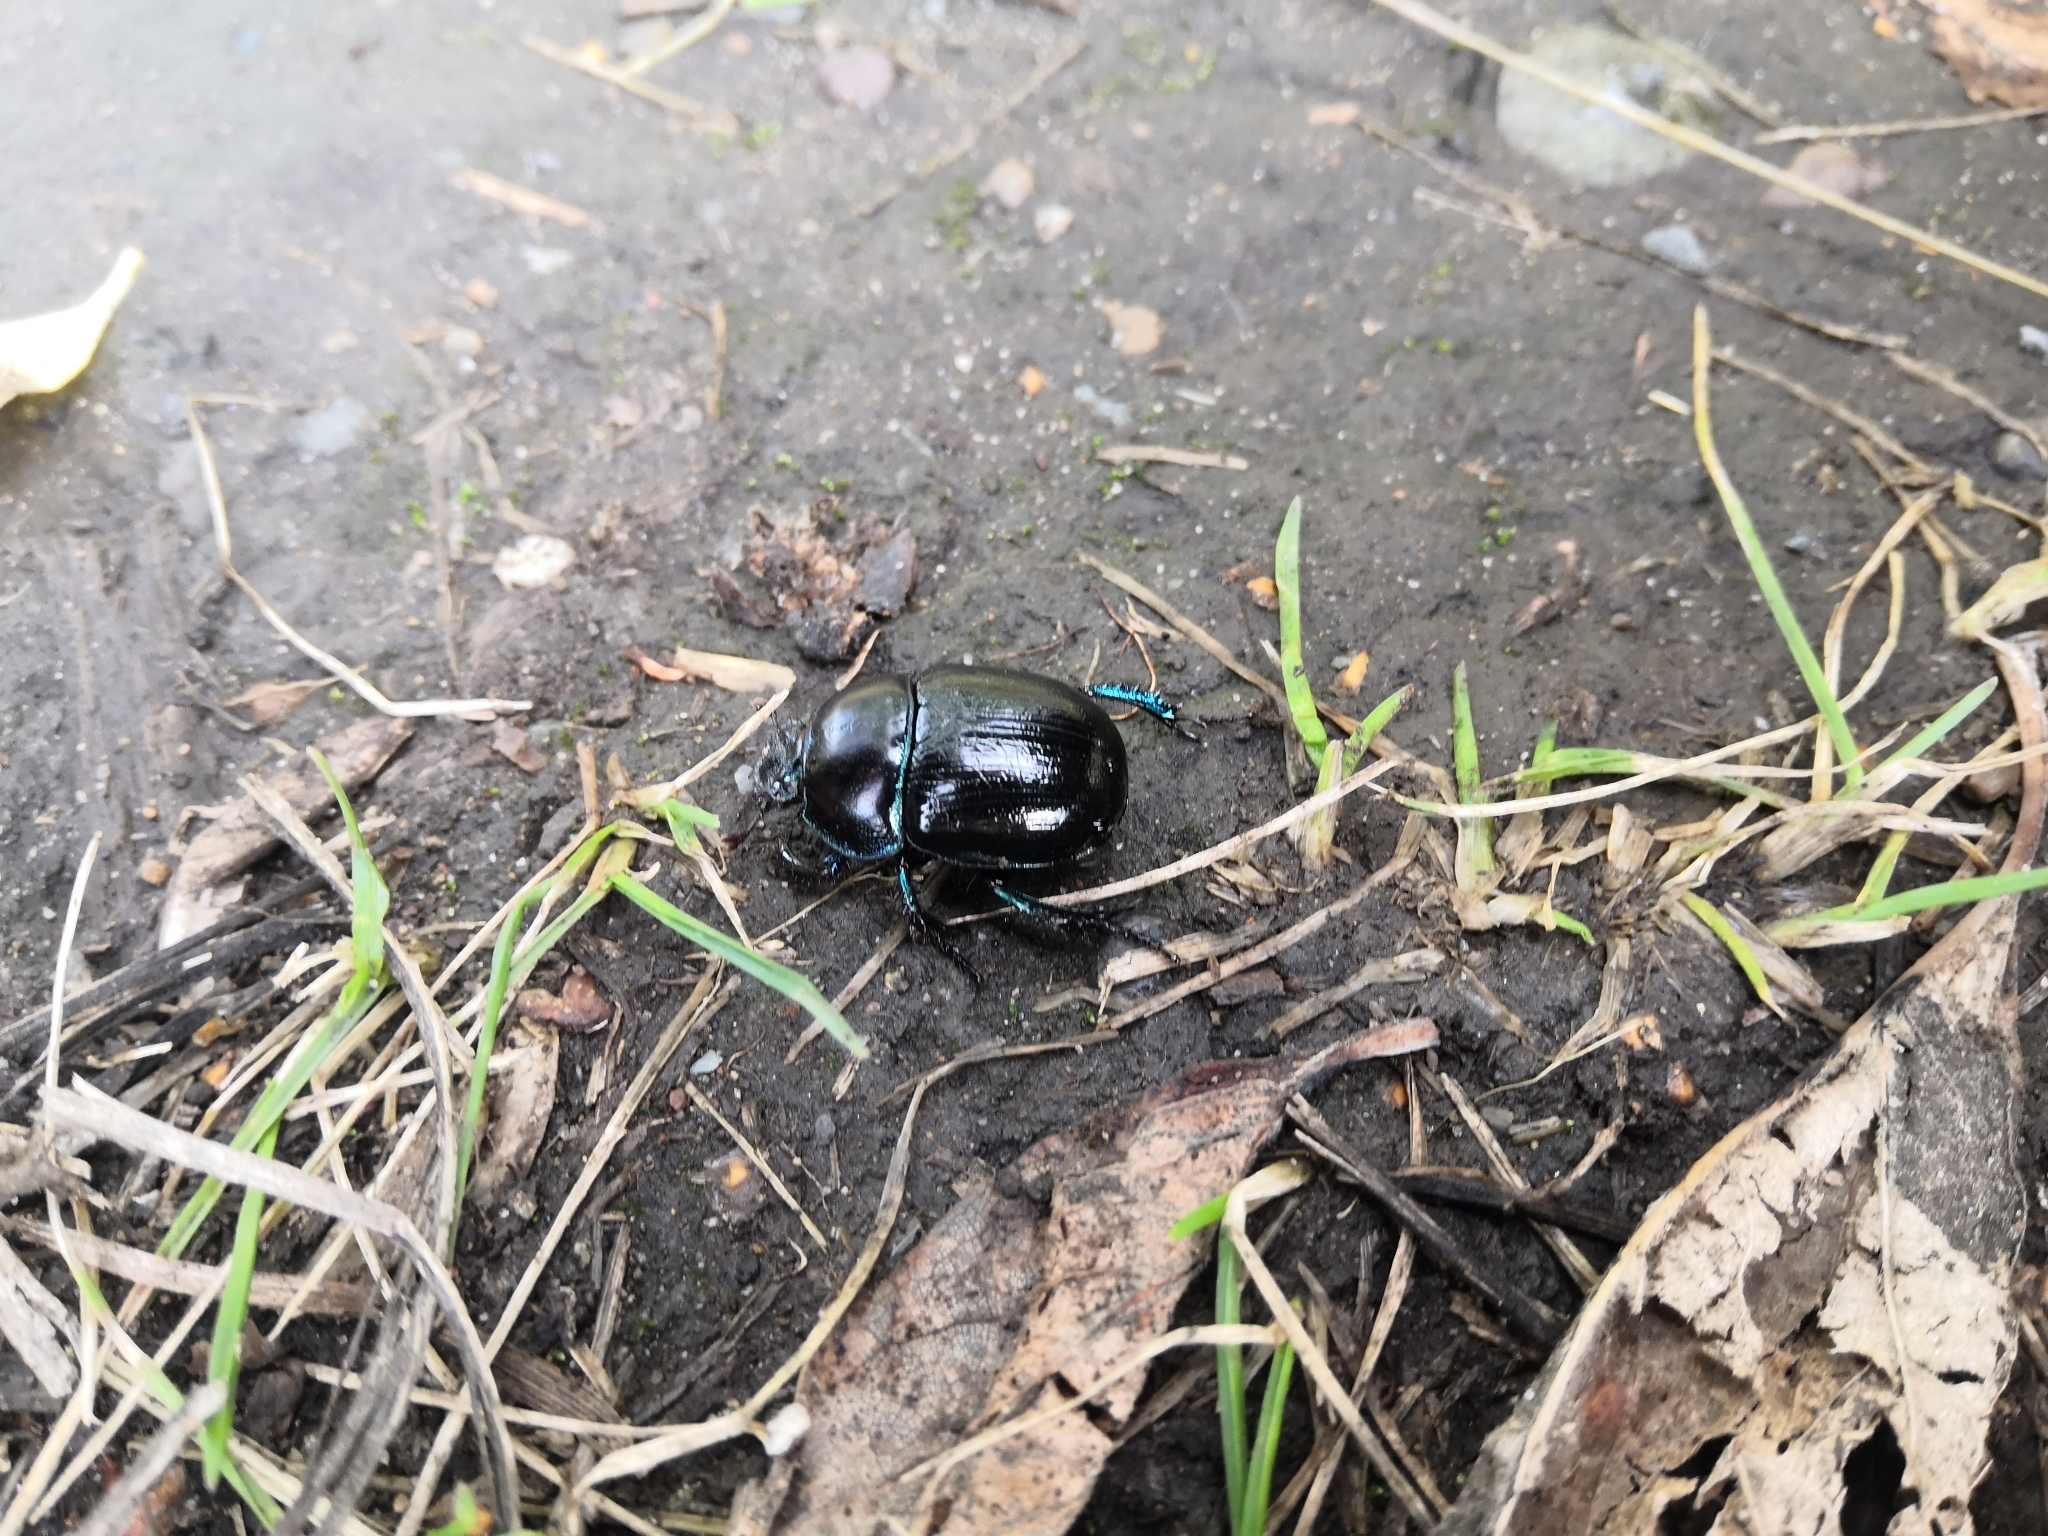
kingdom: Animalia
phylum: Arthropoda
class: Insecta
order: Coleoptera
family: Geotrupidae
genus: Anoplotrupes
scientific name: Anoplotrupes stercorosus
